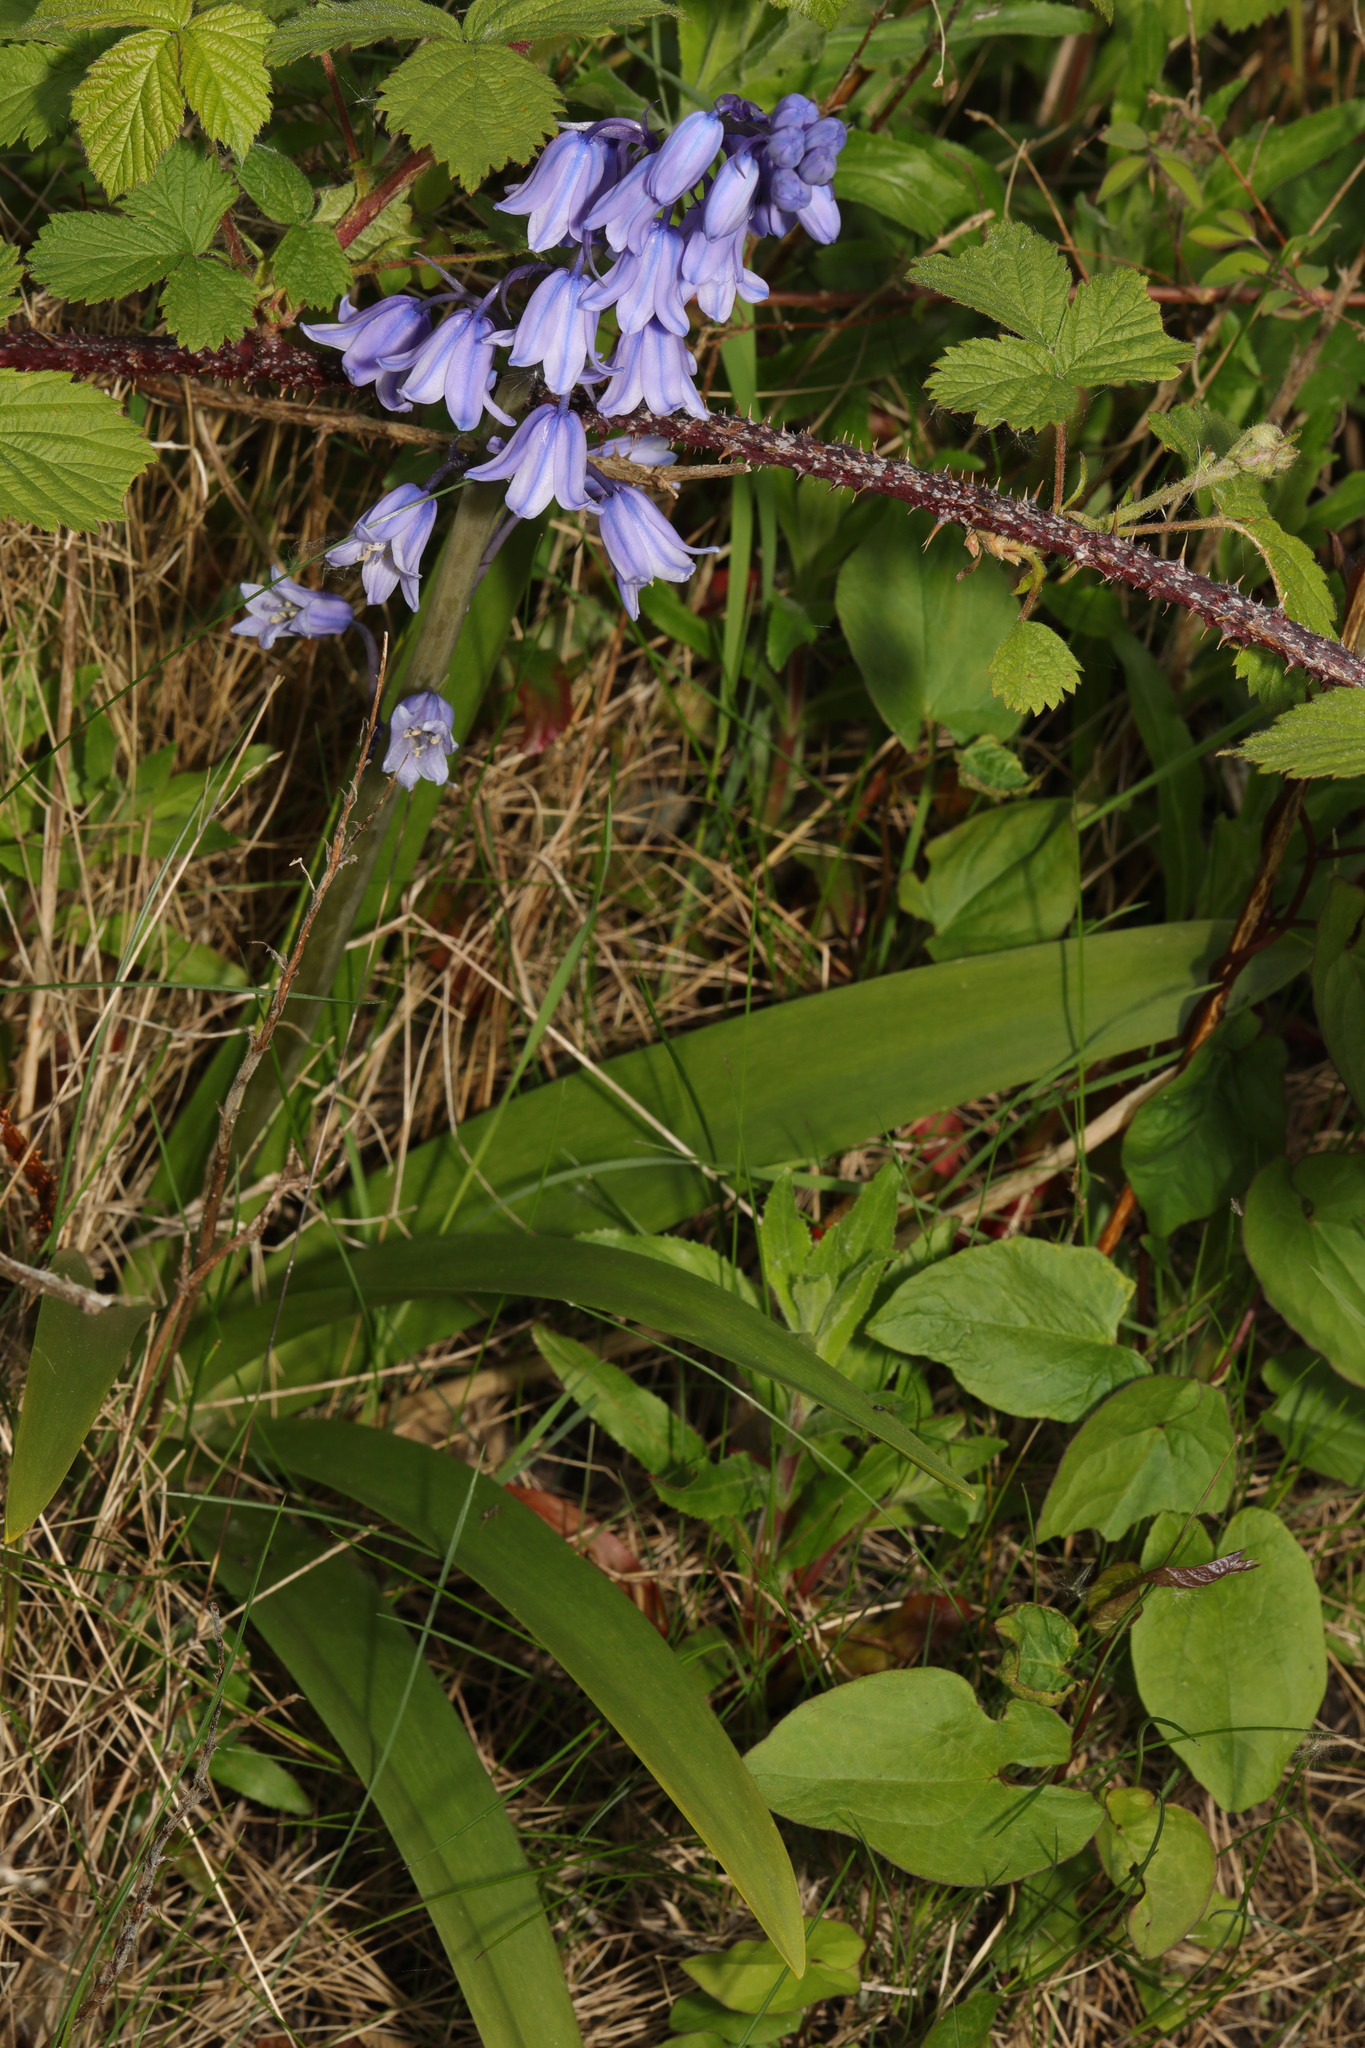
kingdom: Plantae
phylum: Tracheophyta
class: Liliopsida
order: Asparagales
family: Asparagaceae
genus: Hyacinthoides
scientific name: Hyacinthoides massartiana
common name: Hyacinthoides
